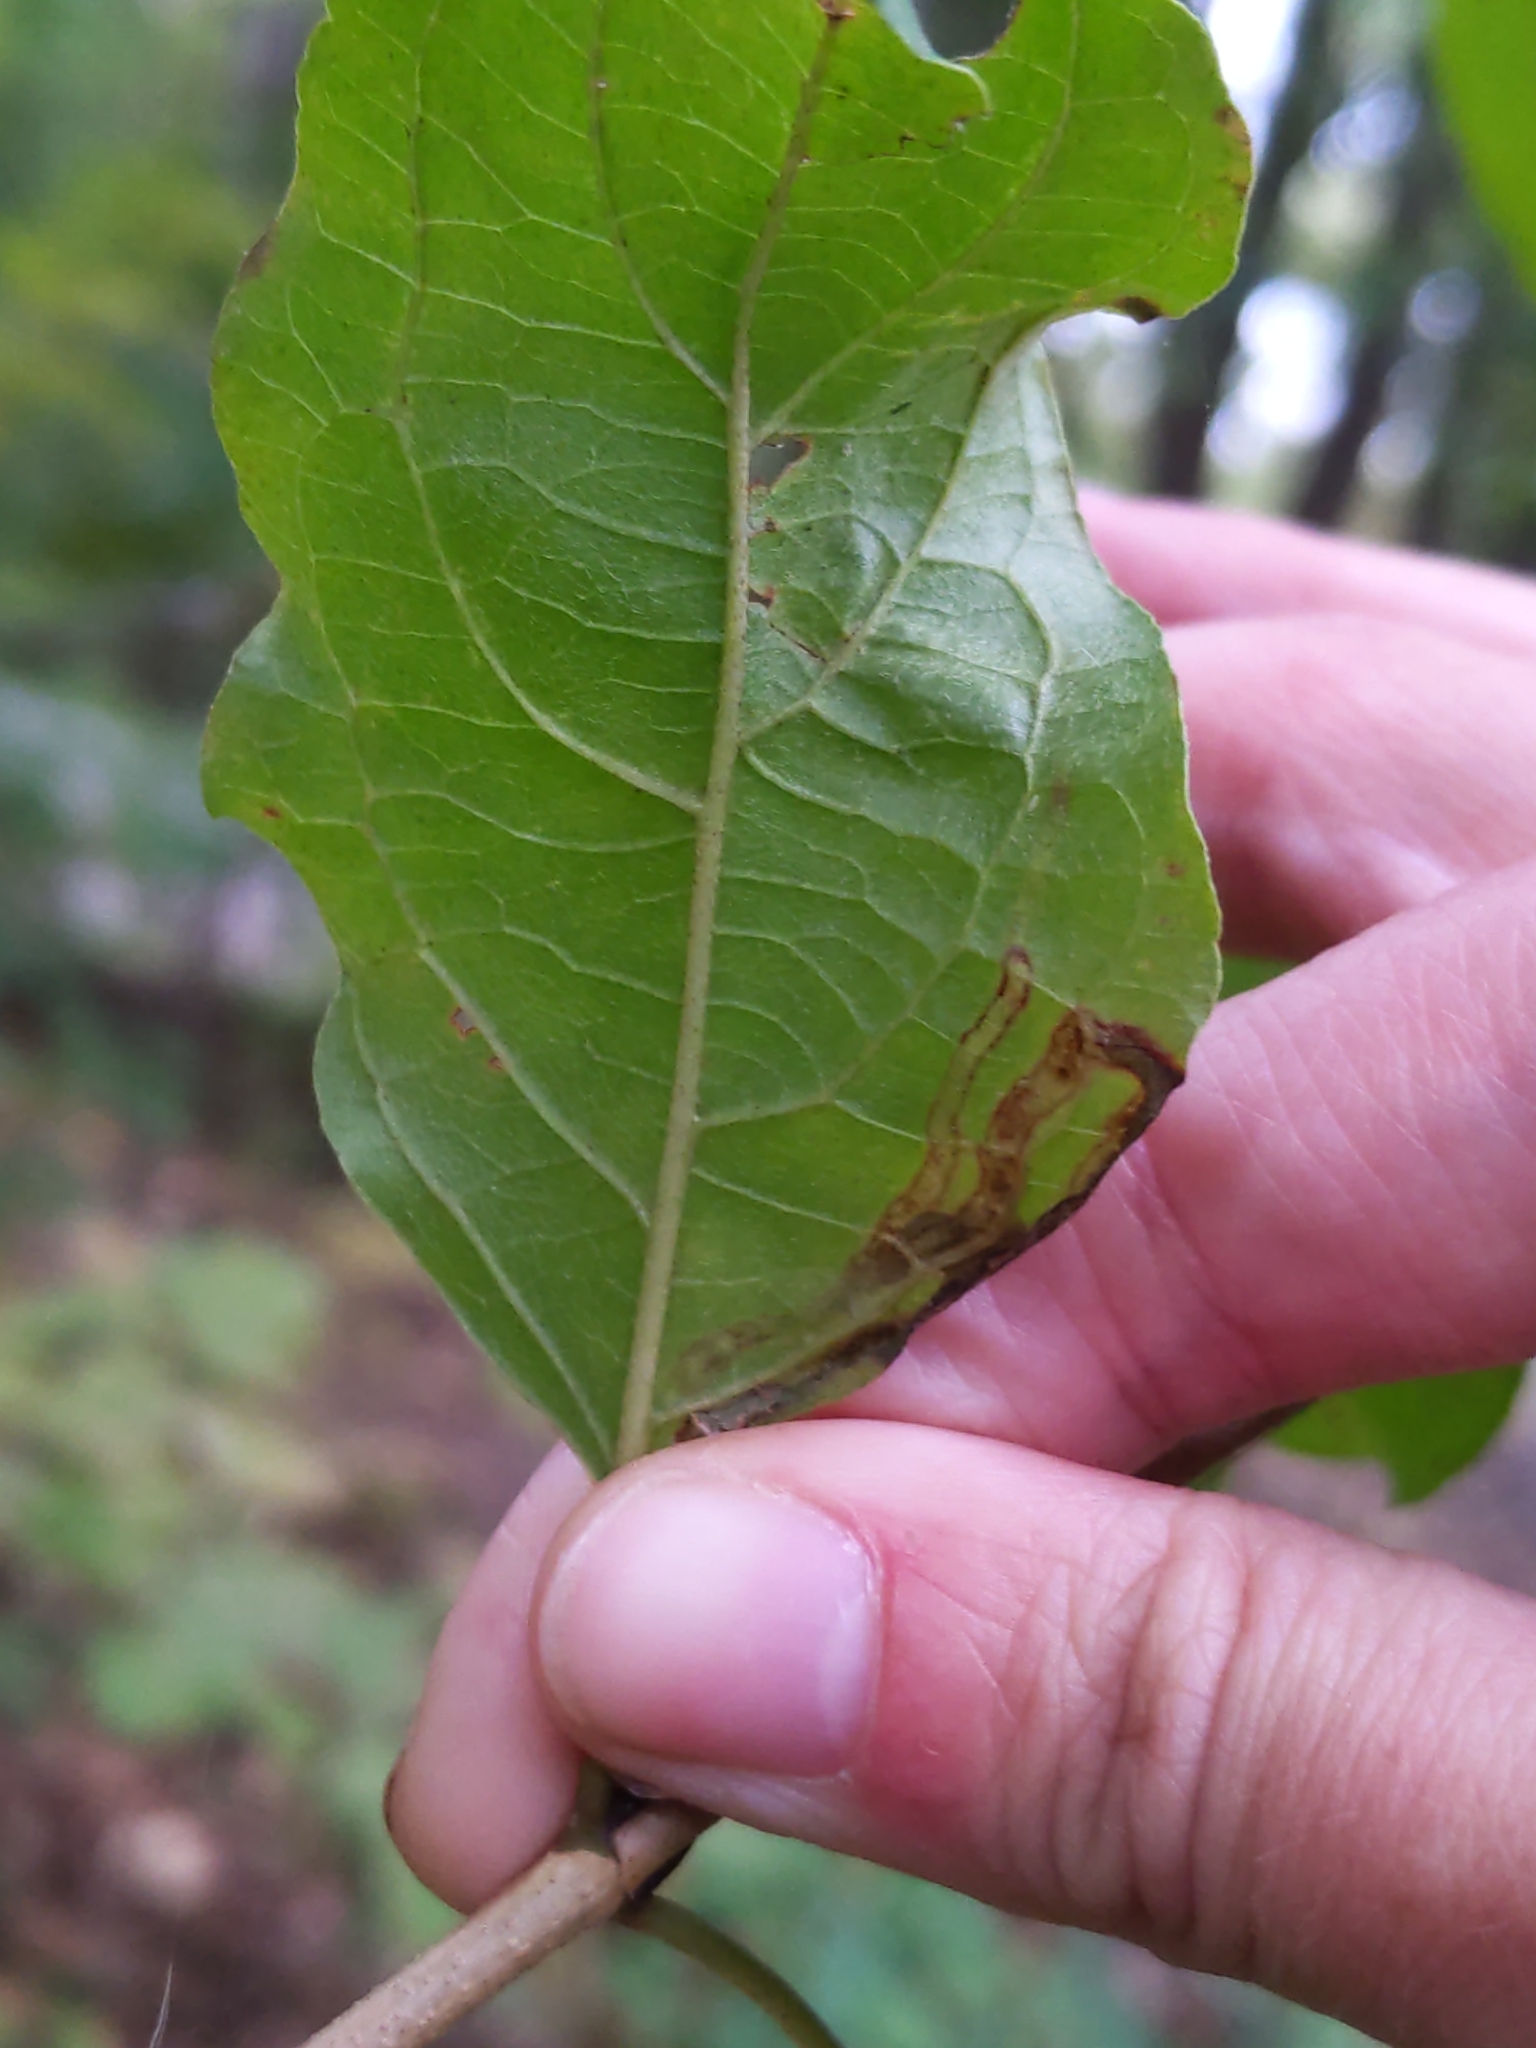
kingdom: Animalia
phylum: Arthropoda
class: Insecta
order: Diptera
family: Agromyzidae
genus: Phytomyza
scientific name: Phytomyza agromyzina
